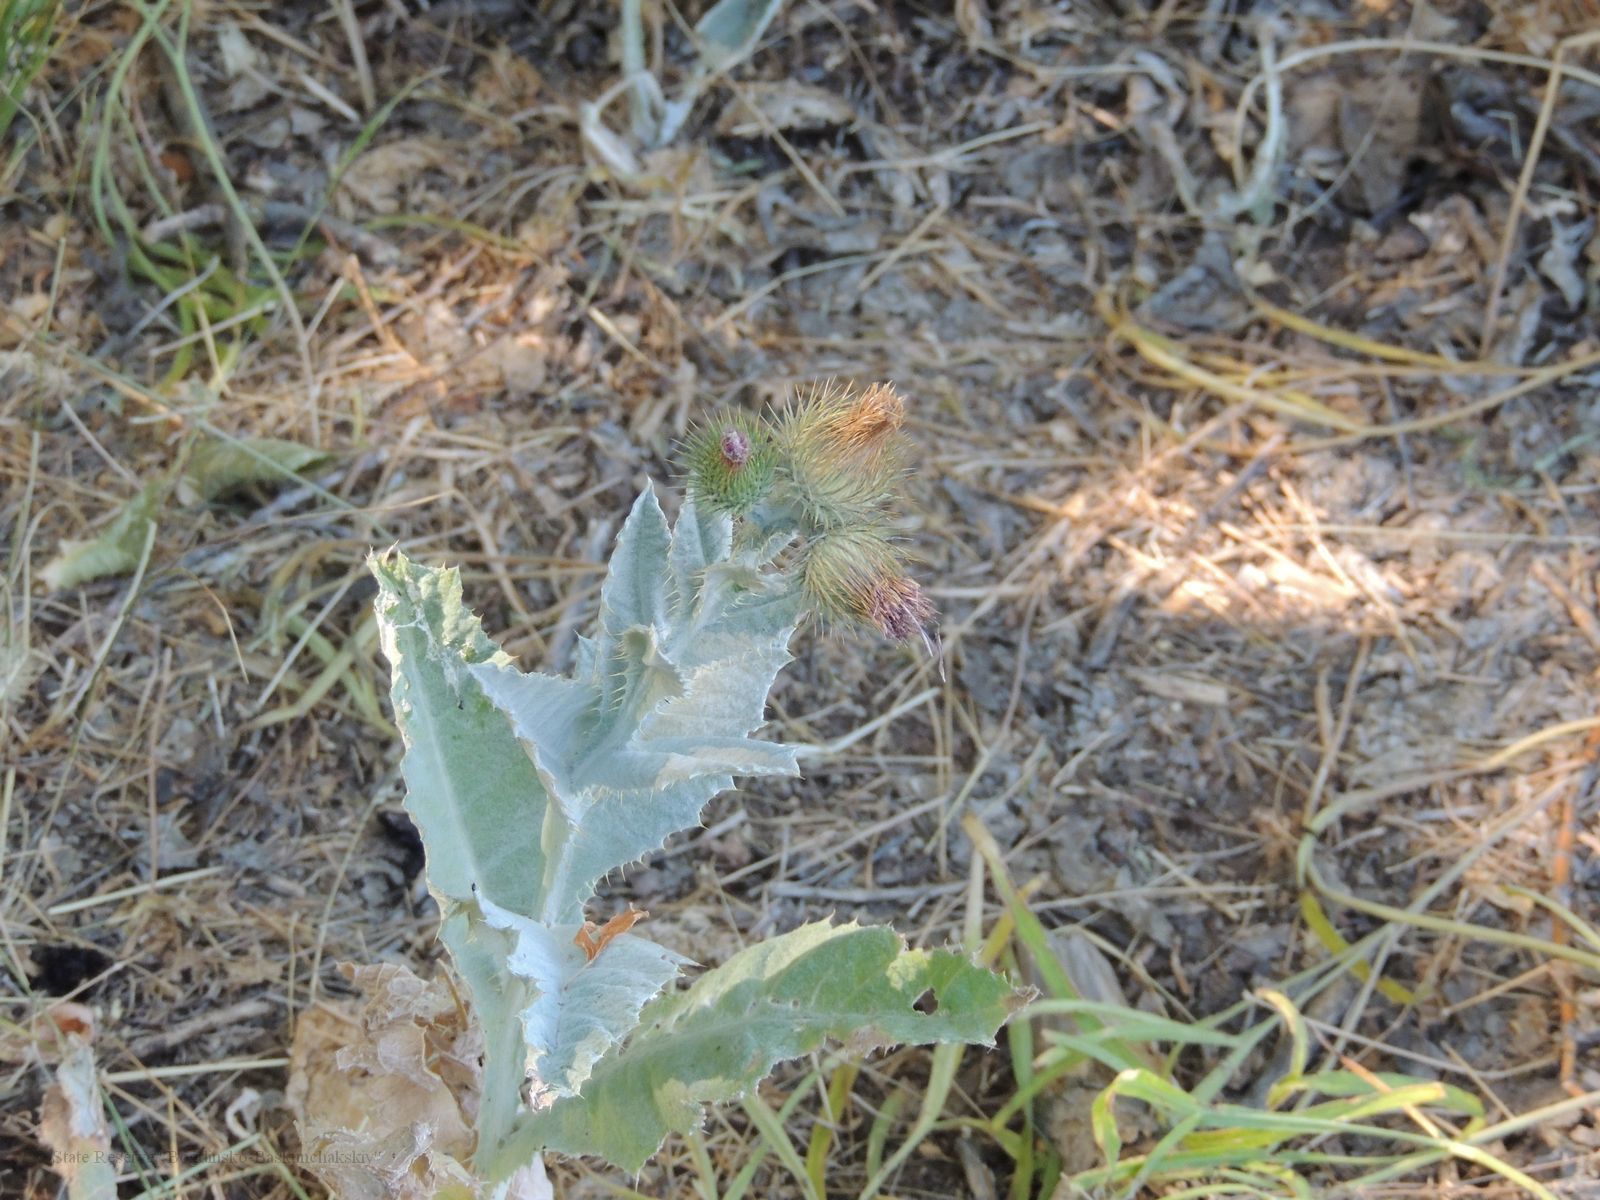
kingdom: Plantae
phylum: Tracheophyta
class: Magnoliopsida
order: Asterales
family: Asteraceae
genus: Onopordum
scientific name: Onopordum acanthium
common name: Scotch thistle
